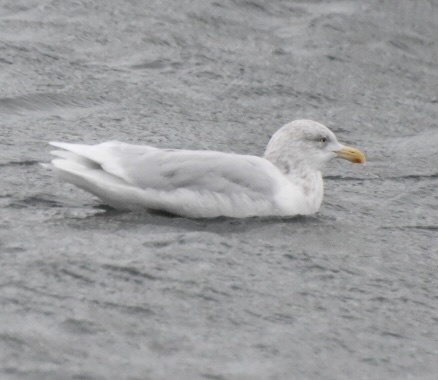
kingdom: Animalia
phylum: Chordata
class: Aves
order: Charadriiformes
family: Laridae
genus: Larus
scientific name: Larus hyperboreus
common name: Glaucous gull
